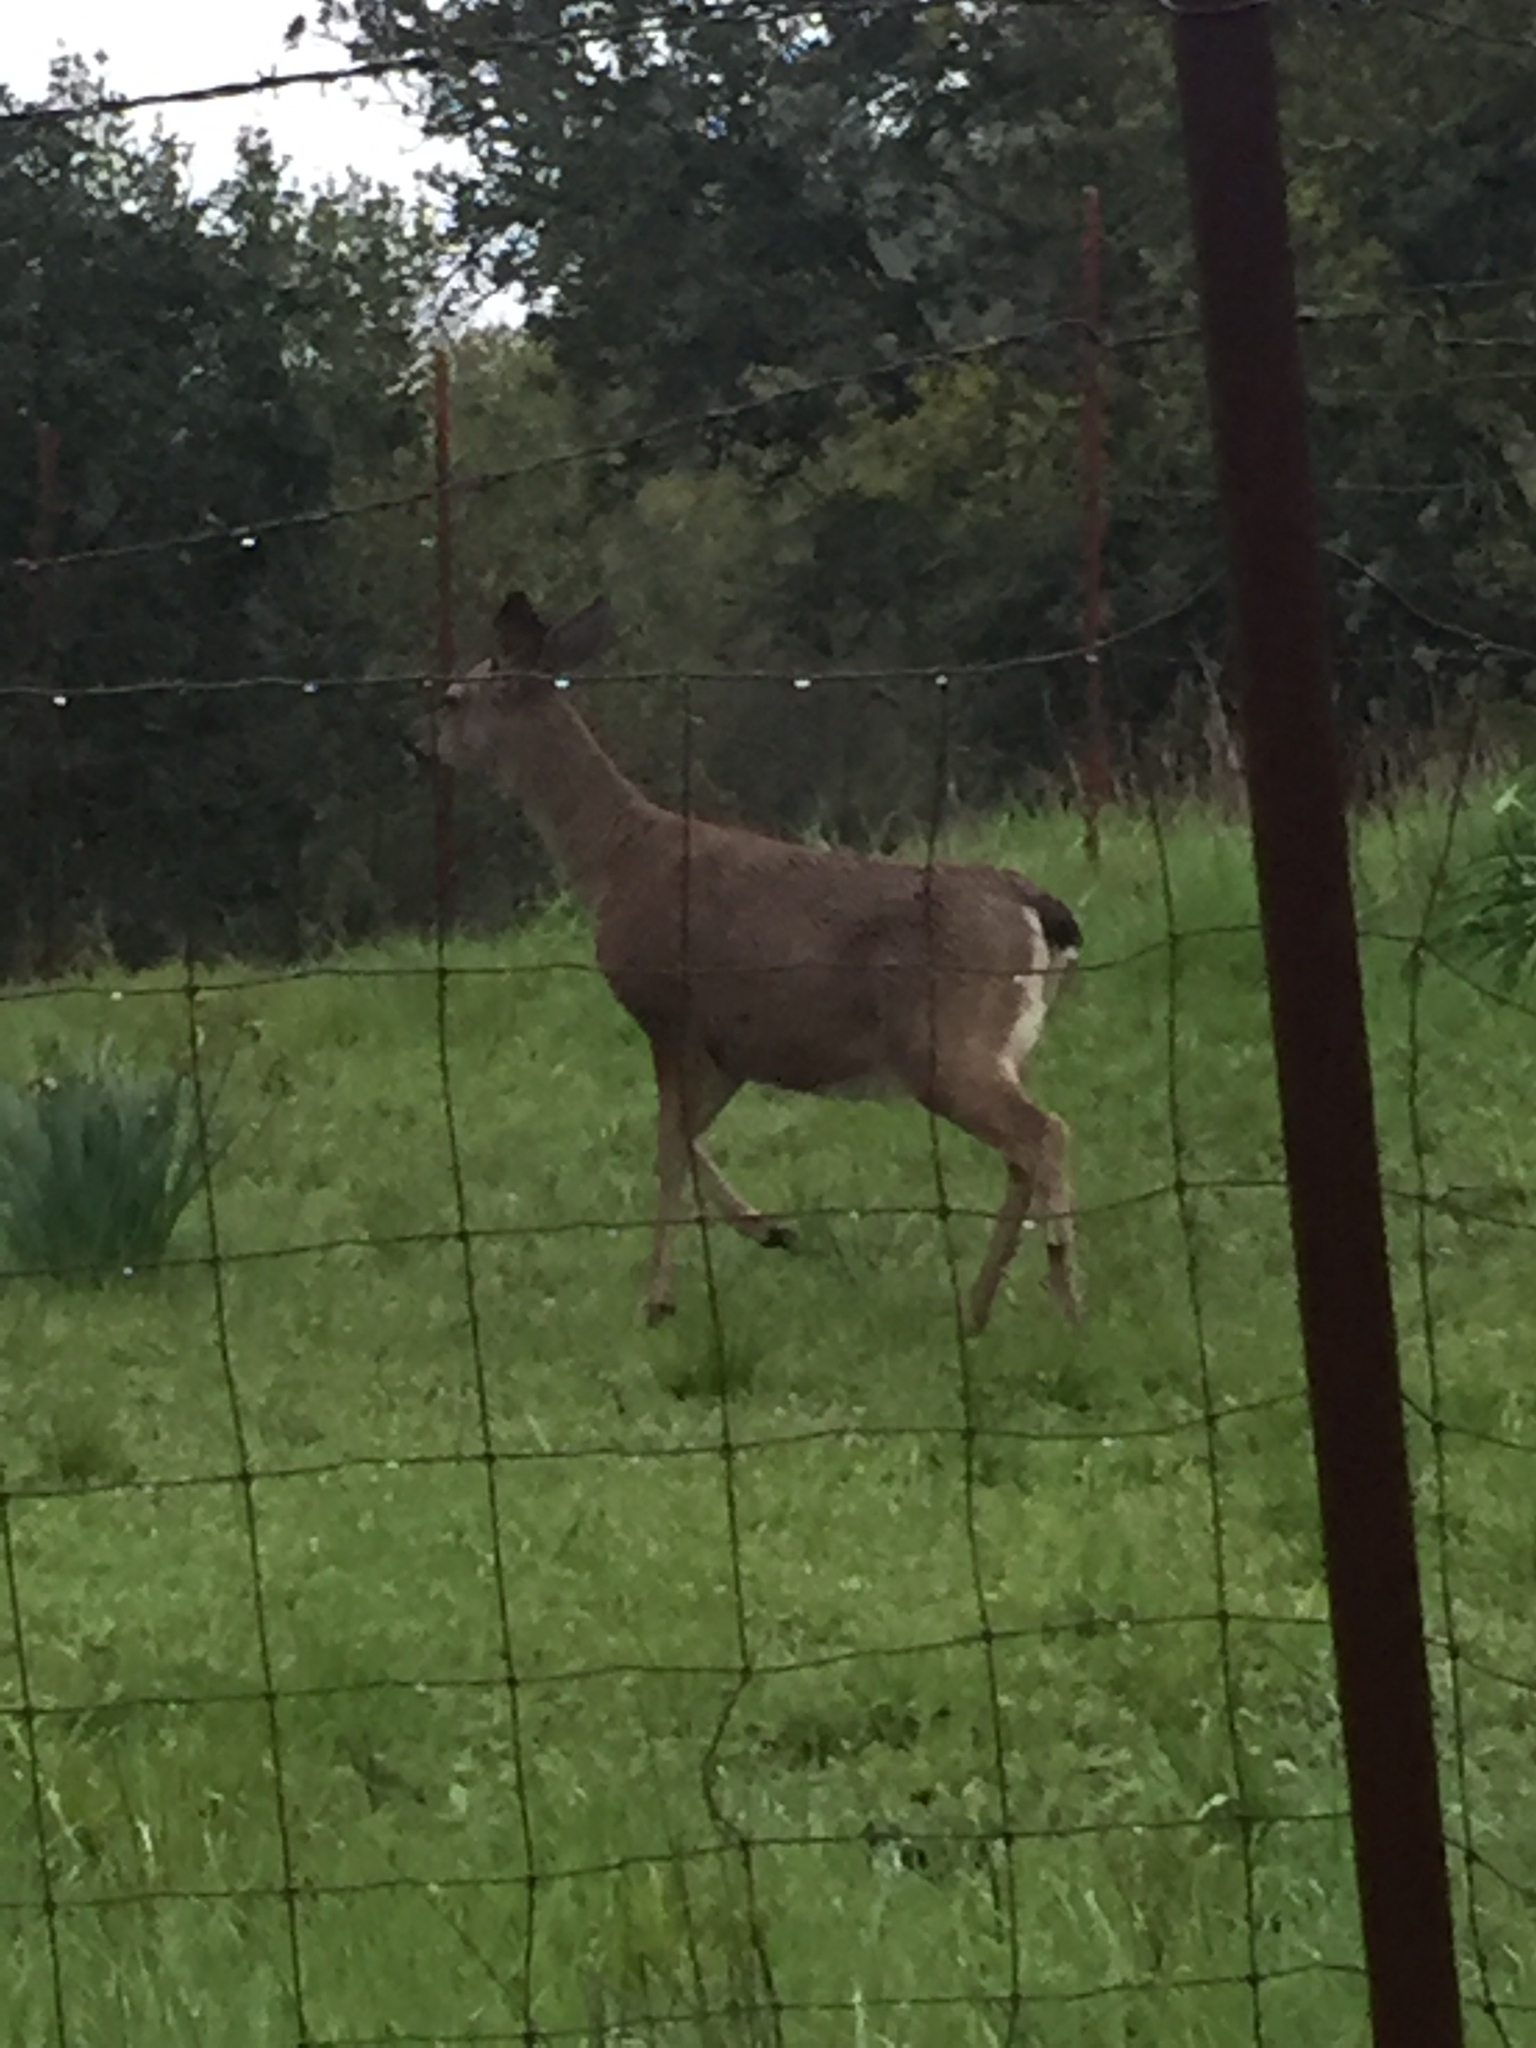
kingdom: Animalia
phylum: Chordata
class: Mammalia
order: Artiodactyla
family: Cervidae
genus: Odocoileus
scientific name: Odocoileus hemionus
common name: Mule deer
